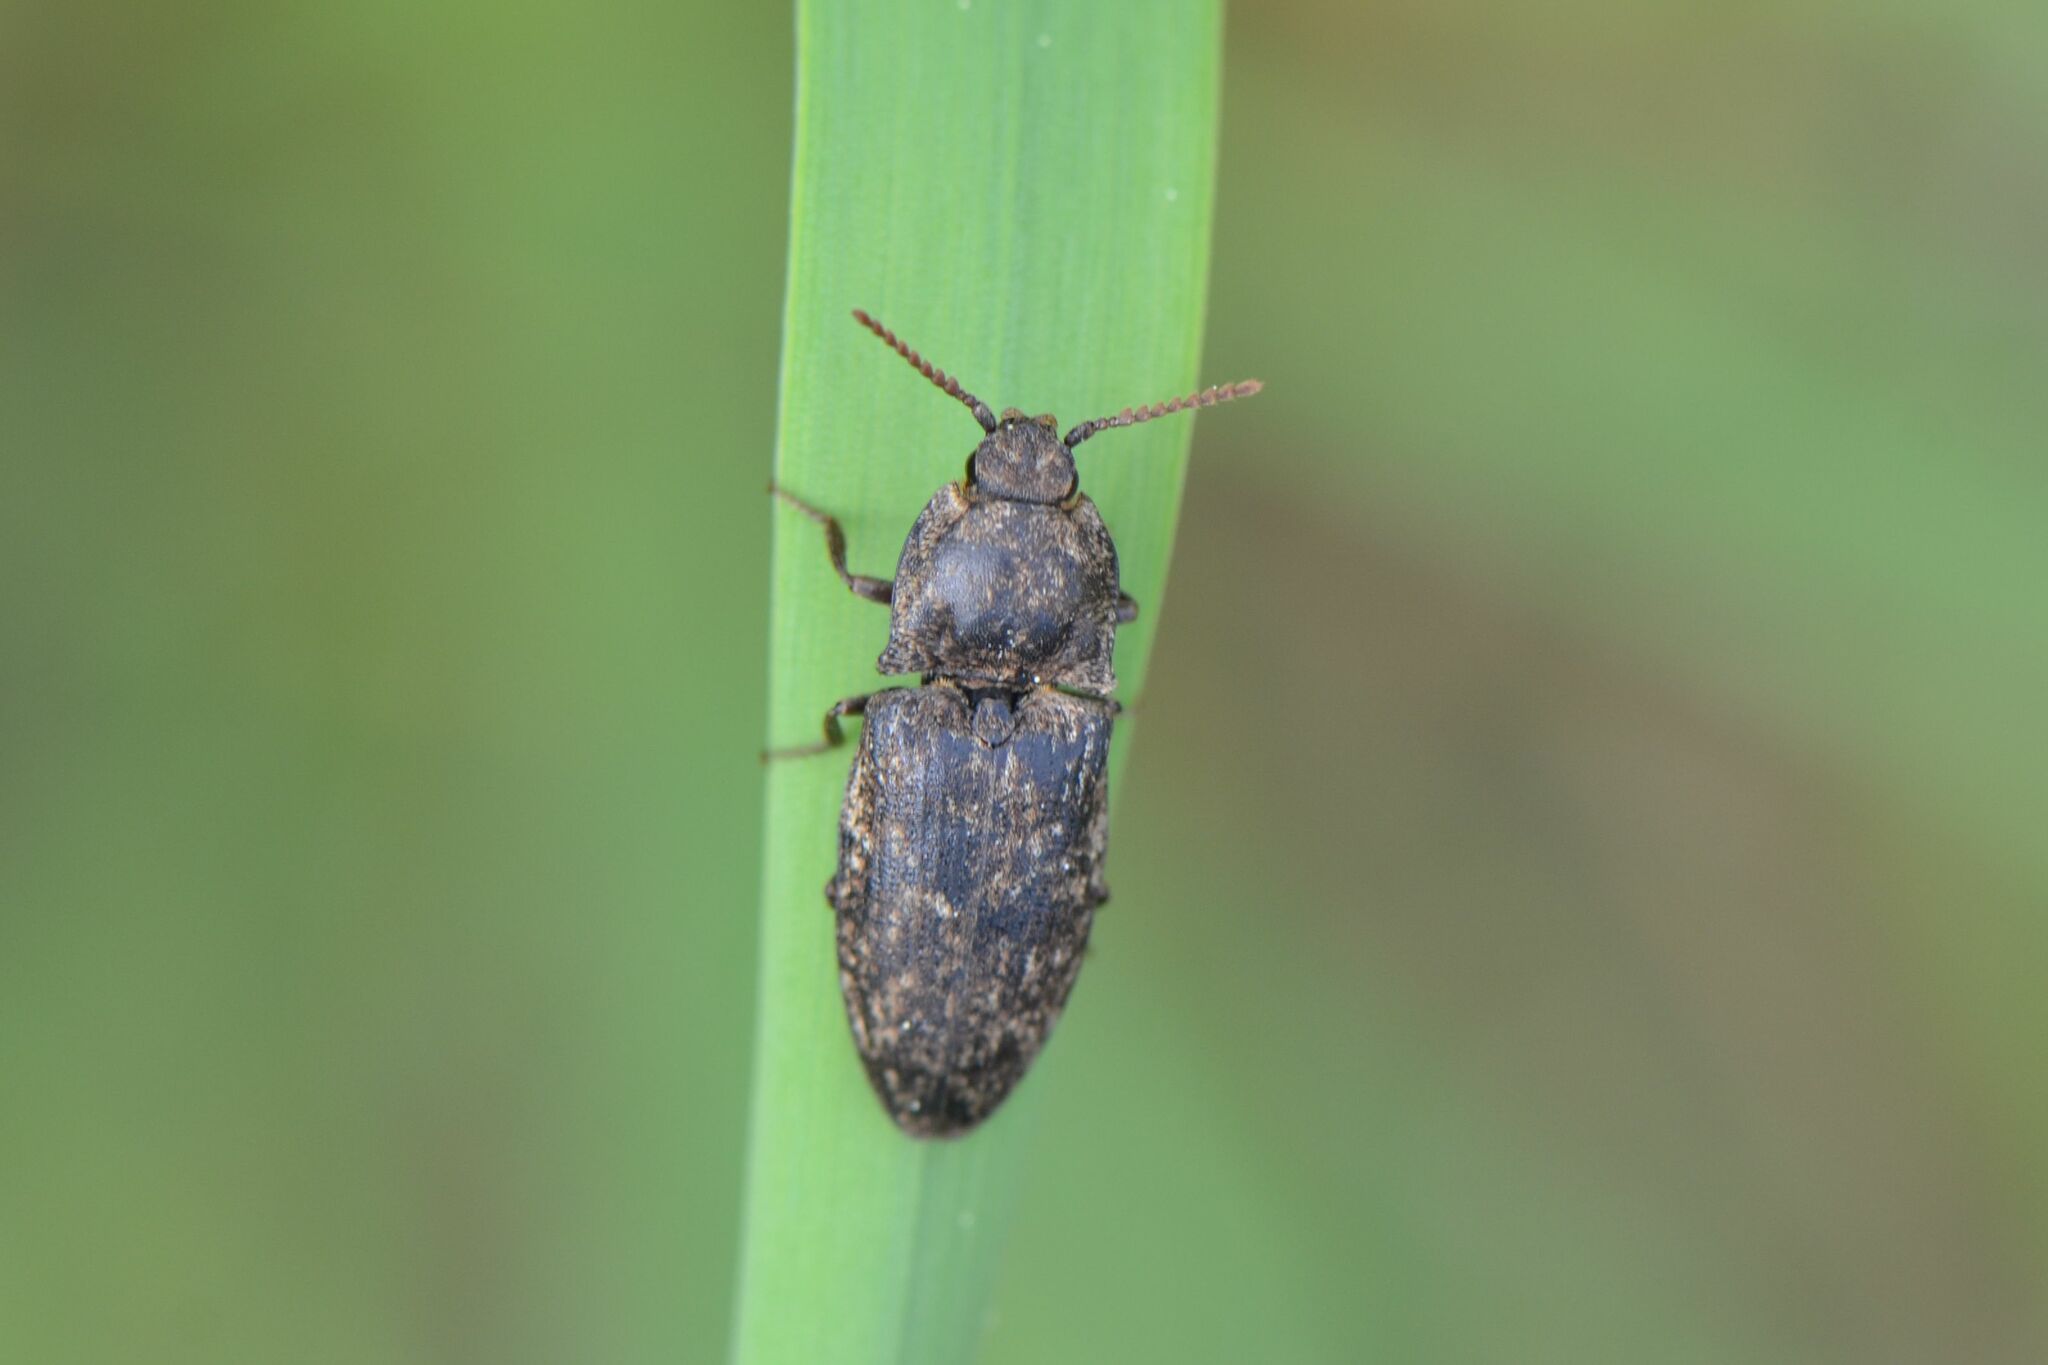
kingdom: Animalia
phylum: Arthropoda
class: Insecta
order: Coleoptera
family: Elateridae
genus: Agrypnus
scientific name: Agrypnus murinus
